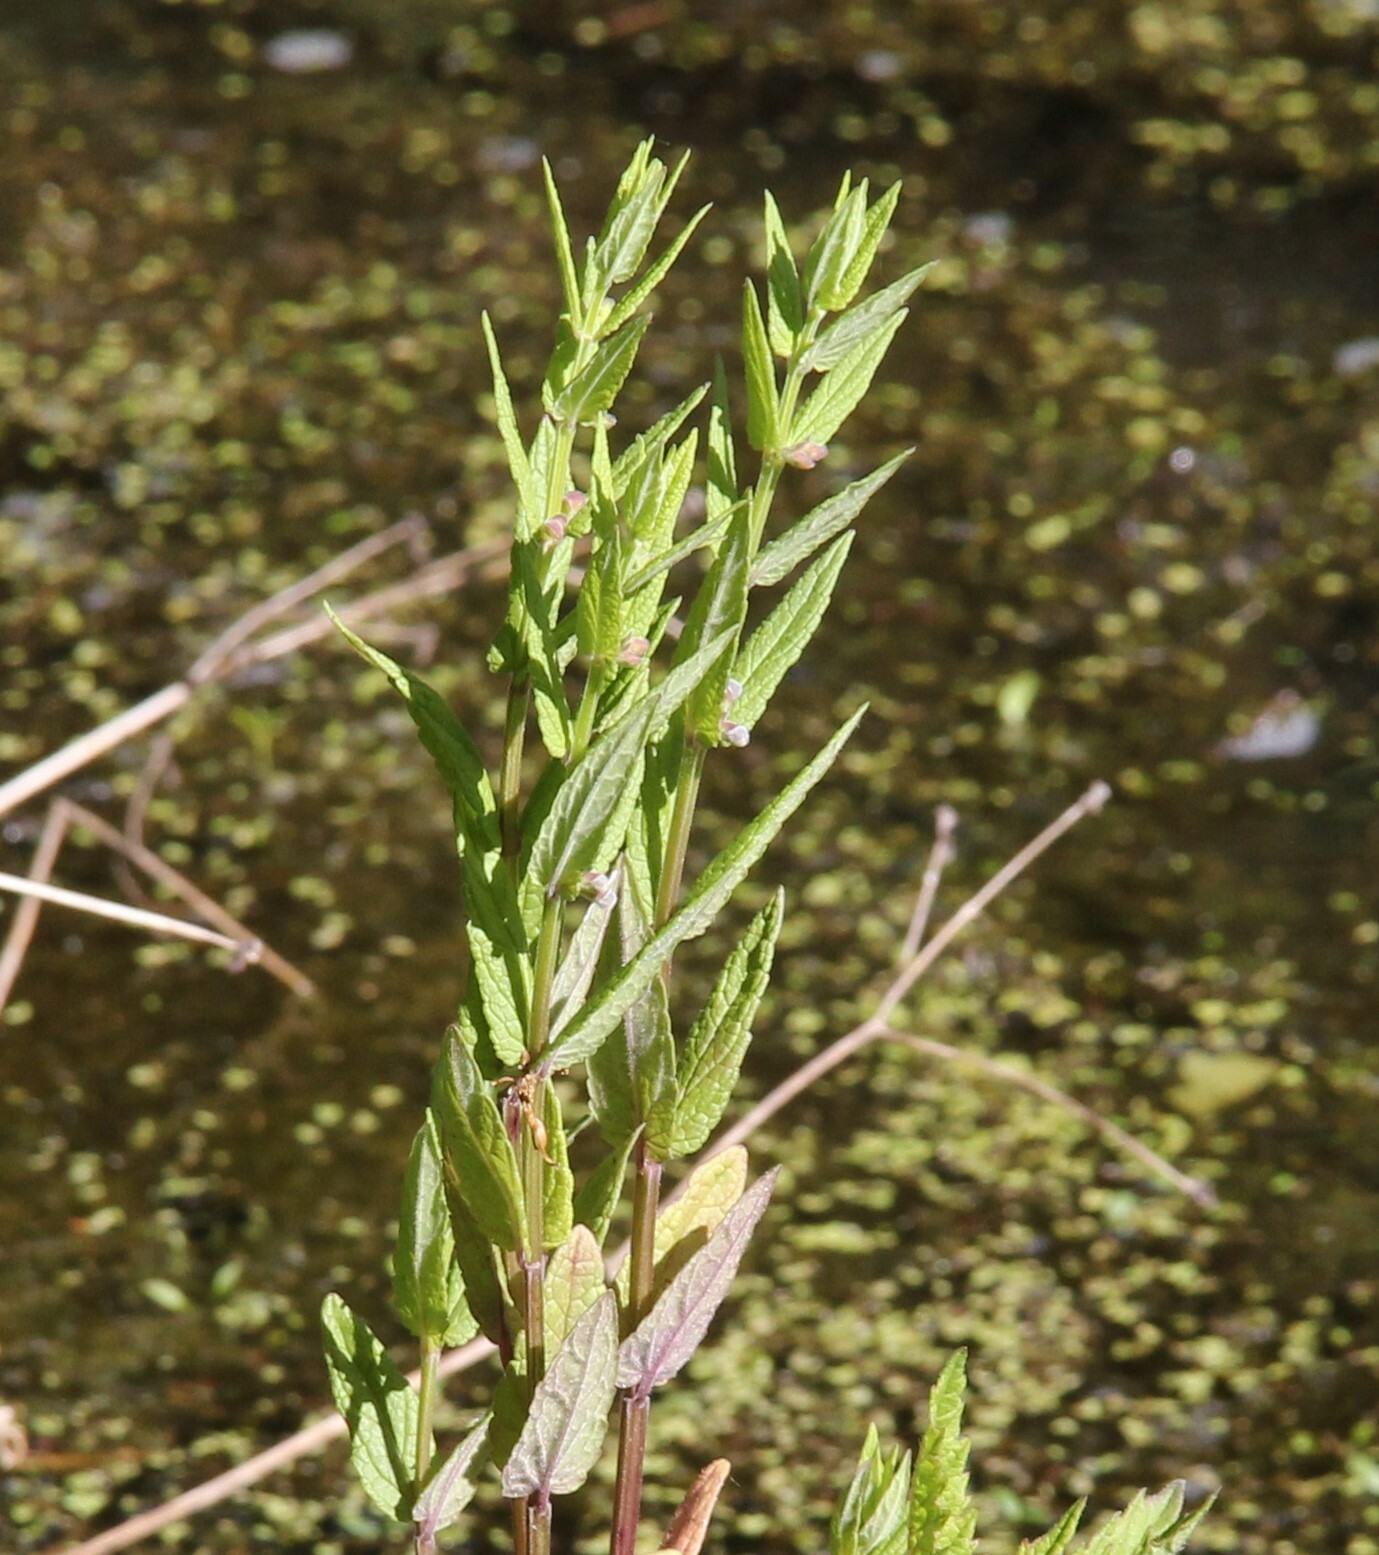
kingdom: Plantae
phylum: Tracheophyta
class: Magnoliopsida
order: Lamiales
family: Lamiaceae
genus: Scutellaria
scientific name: Scutellaria galericulata
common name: Skullcap
